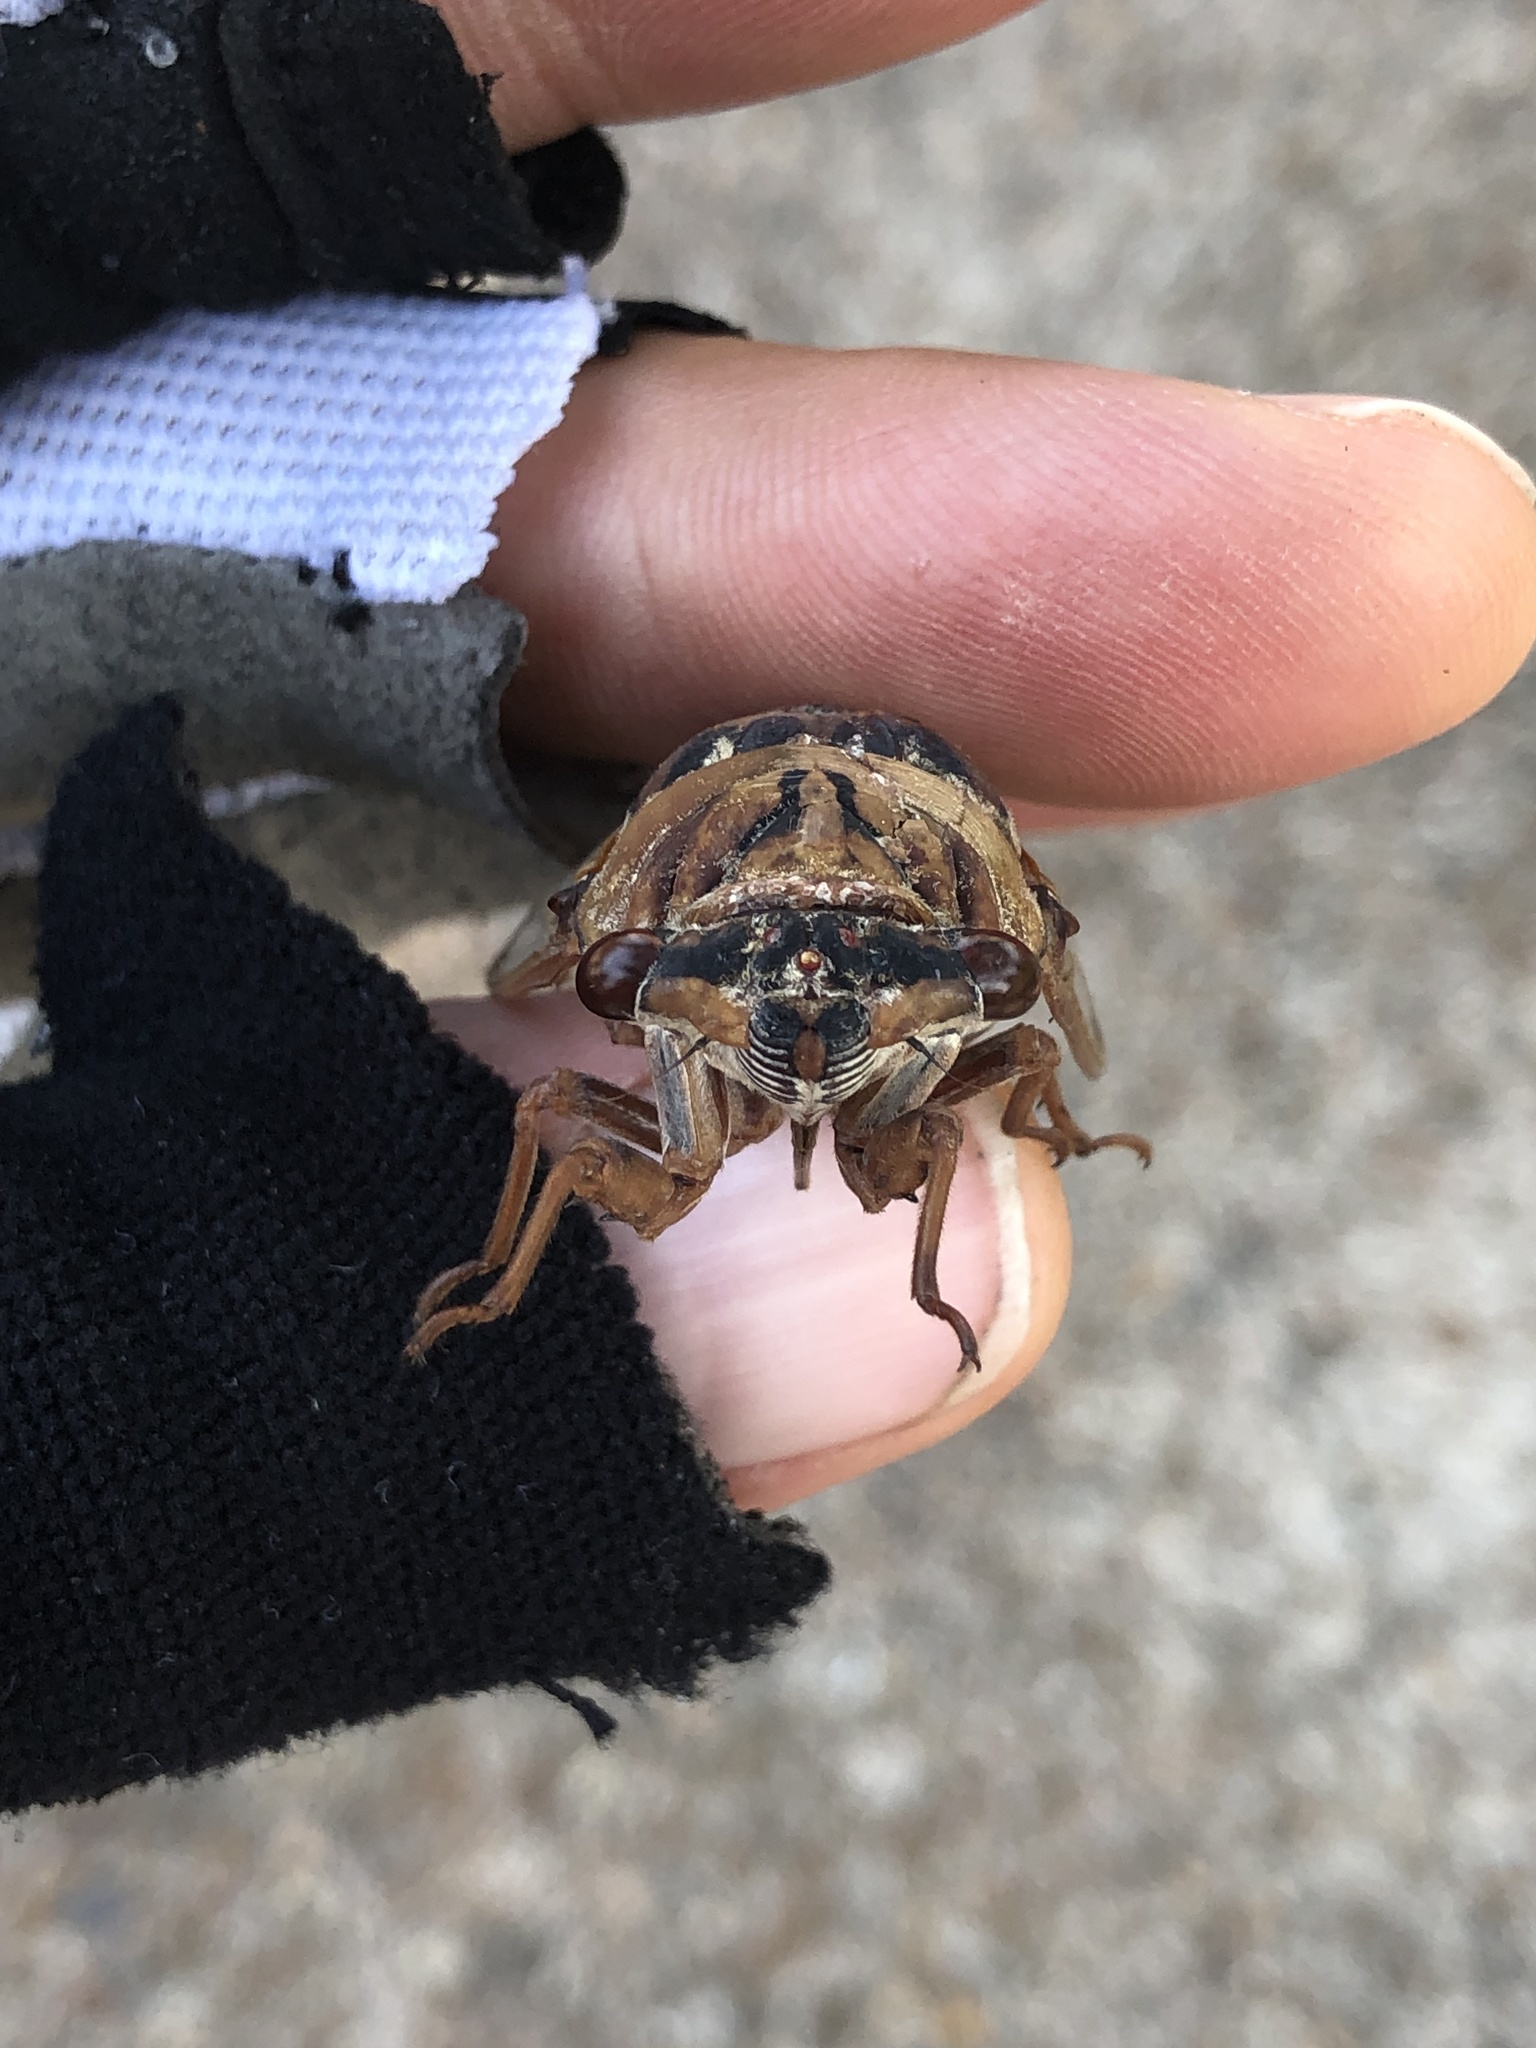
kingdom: Animalia
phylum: Arthropoda
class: Insecta
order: Hemiptera
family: Cicadidae
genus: Megatibicen
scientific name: Megatibicen resh
